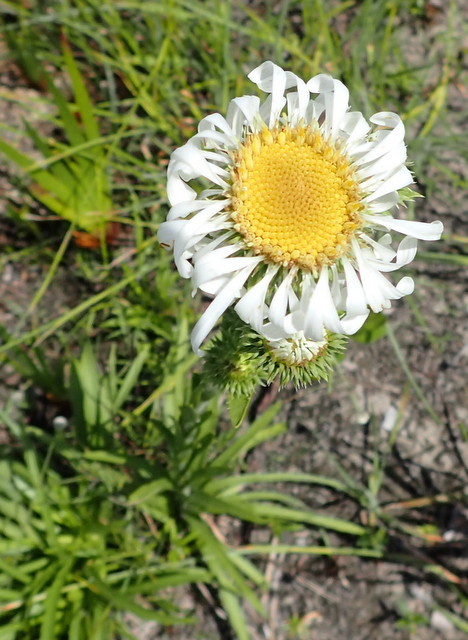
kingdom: Plantae
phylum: Tracheophyta
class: Magnoliopsida
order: Asterales
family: Asteraceae
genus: Eurybia
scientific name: Eurybia eryngiifolia
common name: Thistle-leaf aster
